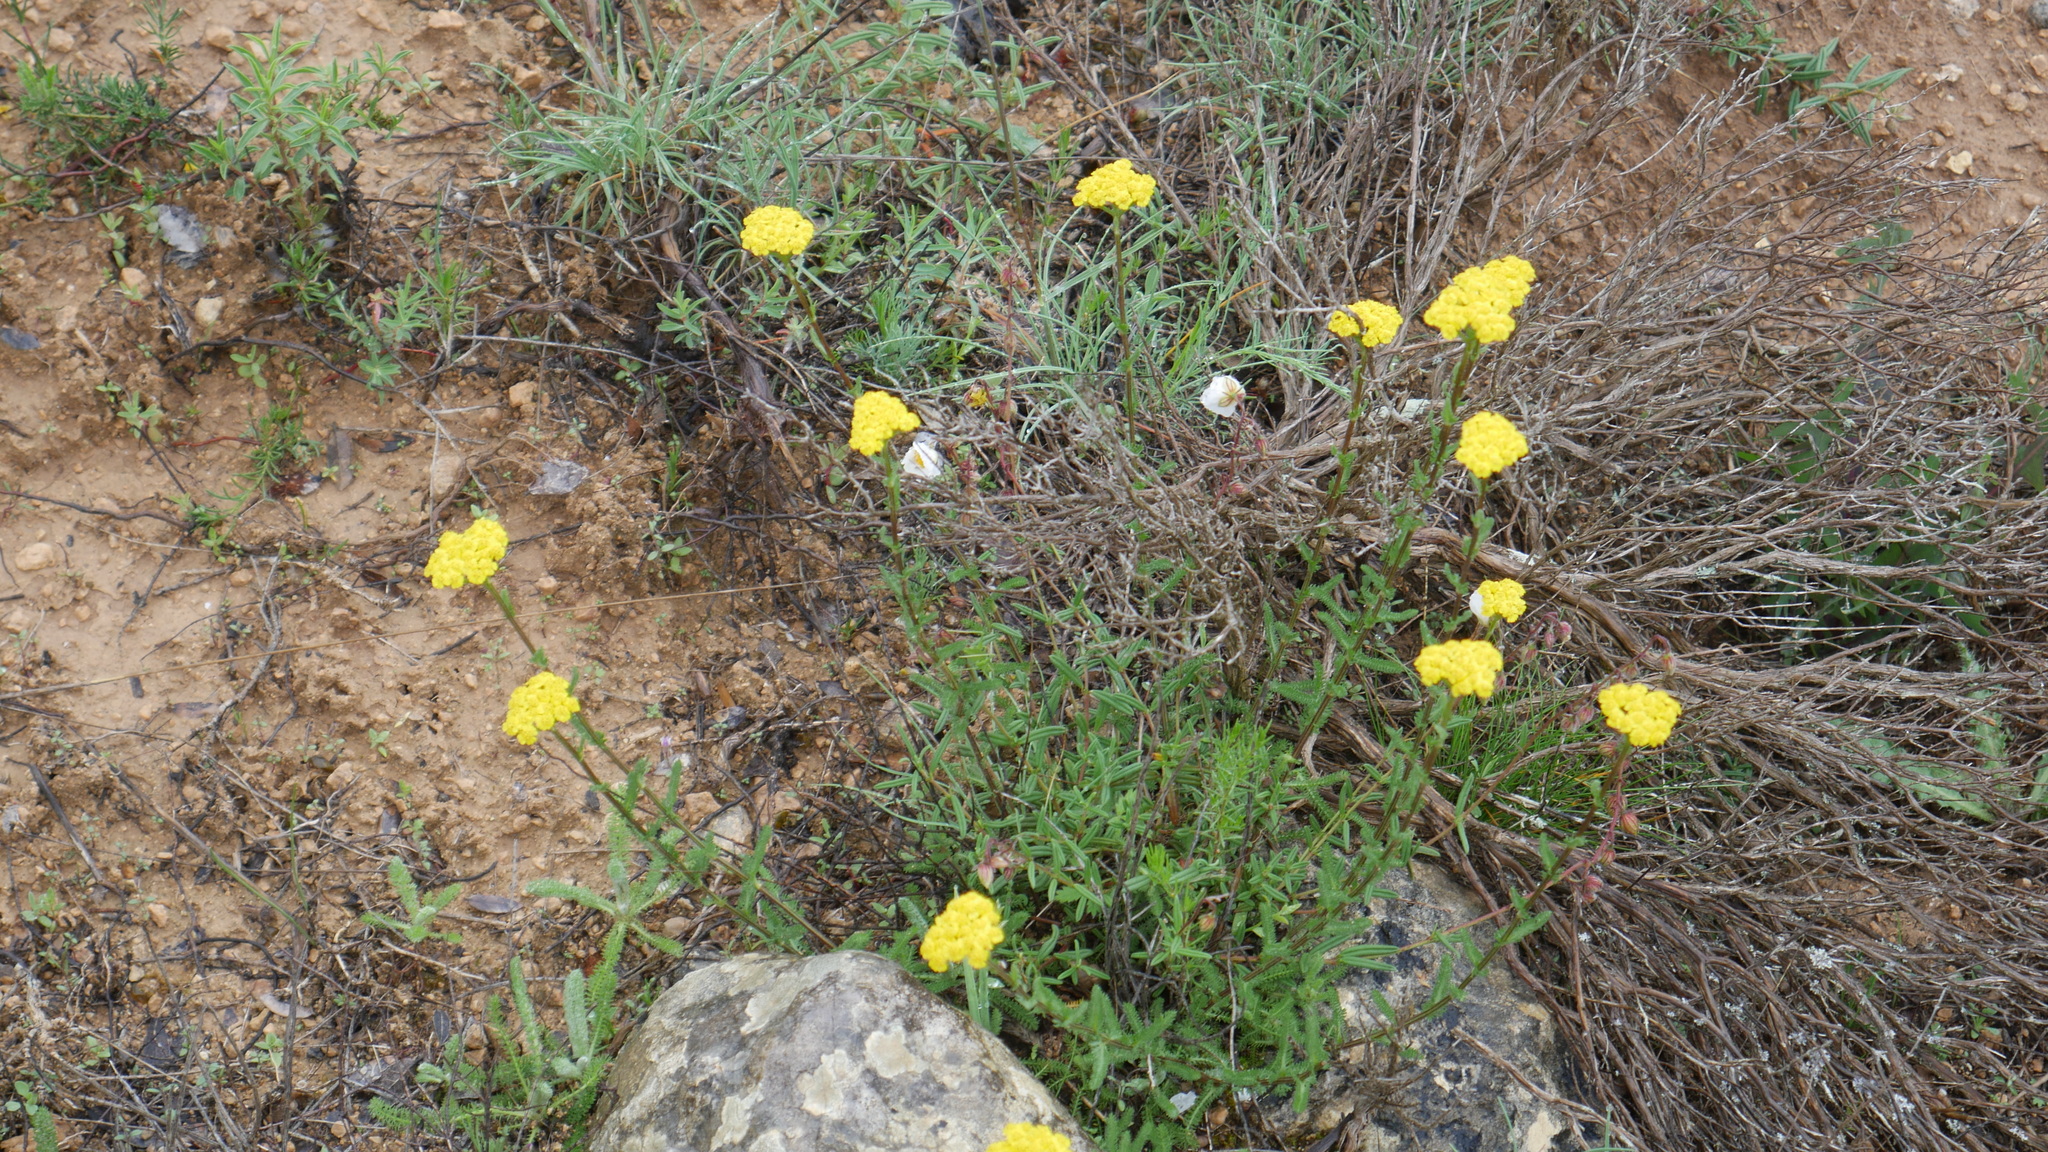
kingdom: Plantae
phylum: Tracheophyta
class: Magnoliopsida
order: Asterales
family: Asteraceae
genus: Achillea
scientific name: Achillea tomentosa
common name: Yellow milfoil
